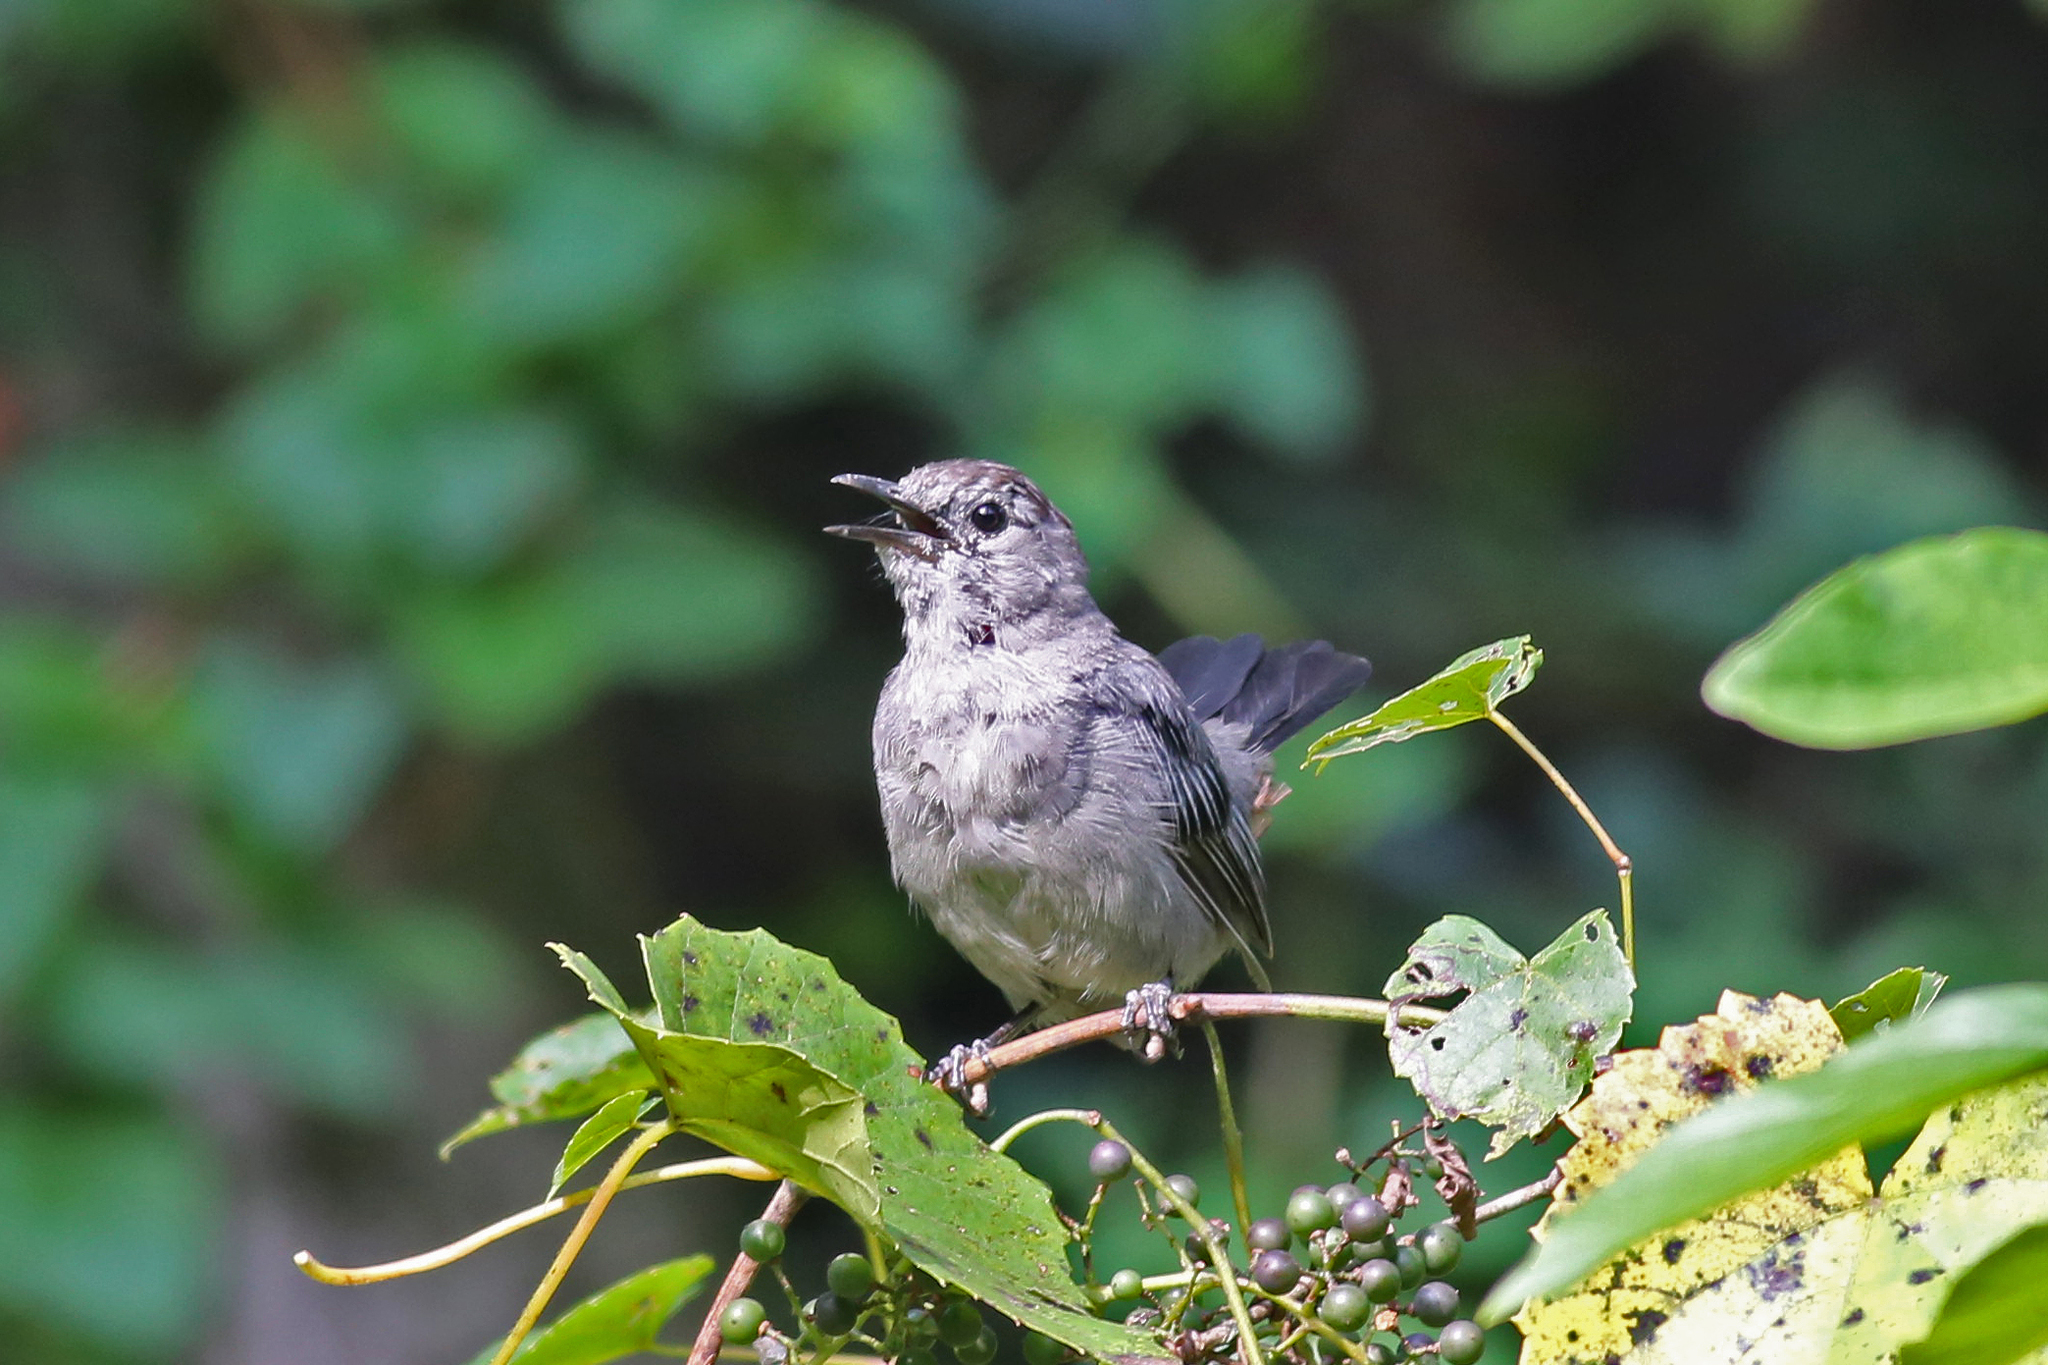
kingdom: Animalia
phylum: Chordata
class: Aves
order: Passeriformes
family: Mimidae
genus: Dumetella
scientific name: Dumetella carolinensis
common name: Gray catbird
